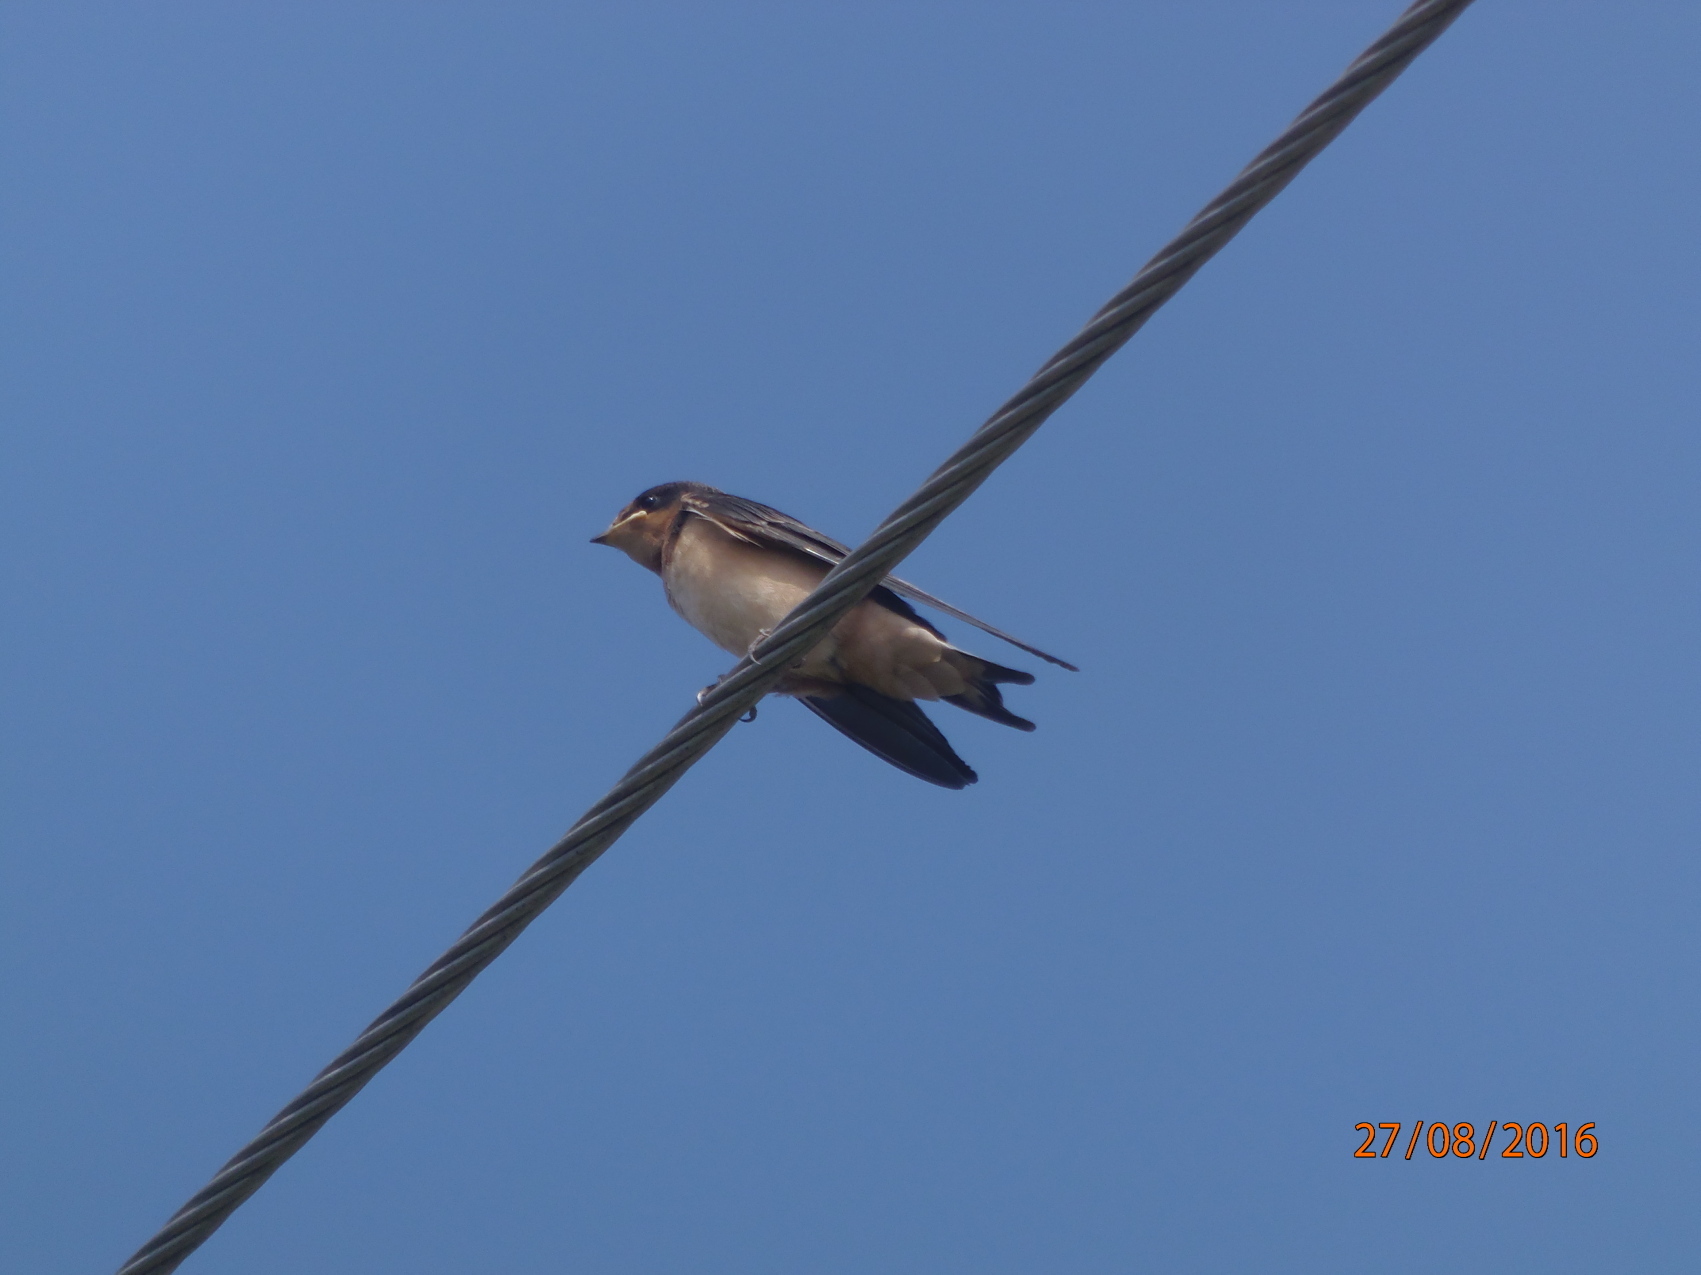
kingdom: Animalia
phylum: Chordata
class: Aves
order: Passeriformes
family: Hirundinidae
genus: Hirundo
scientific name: Hirundo rustica
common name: Barn swallow
